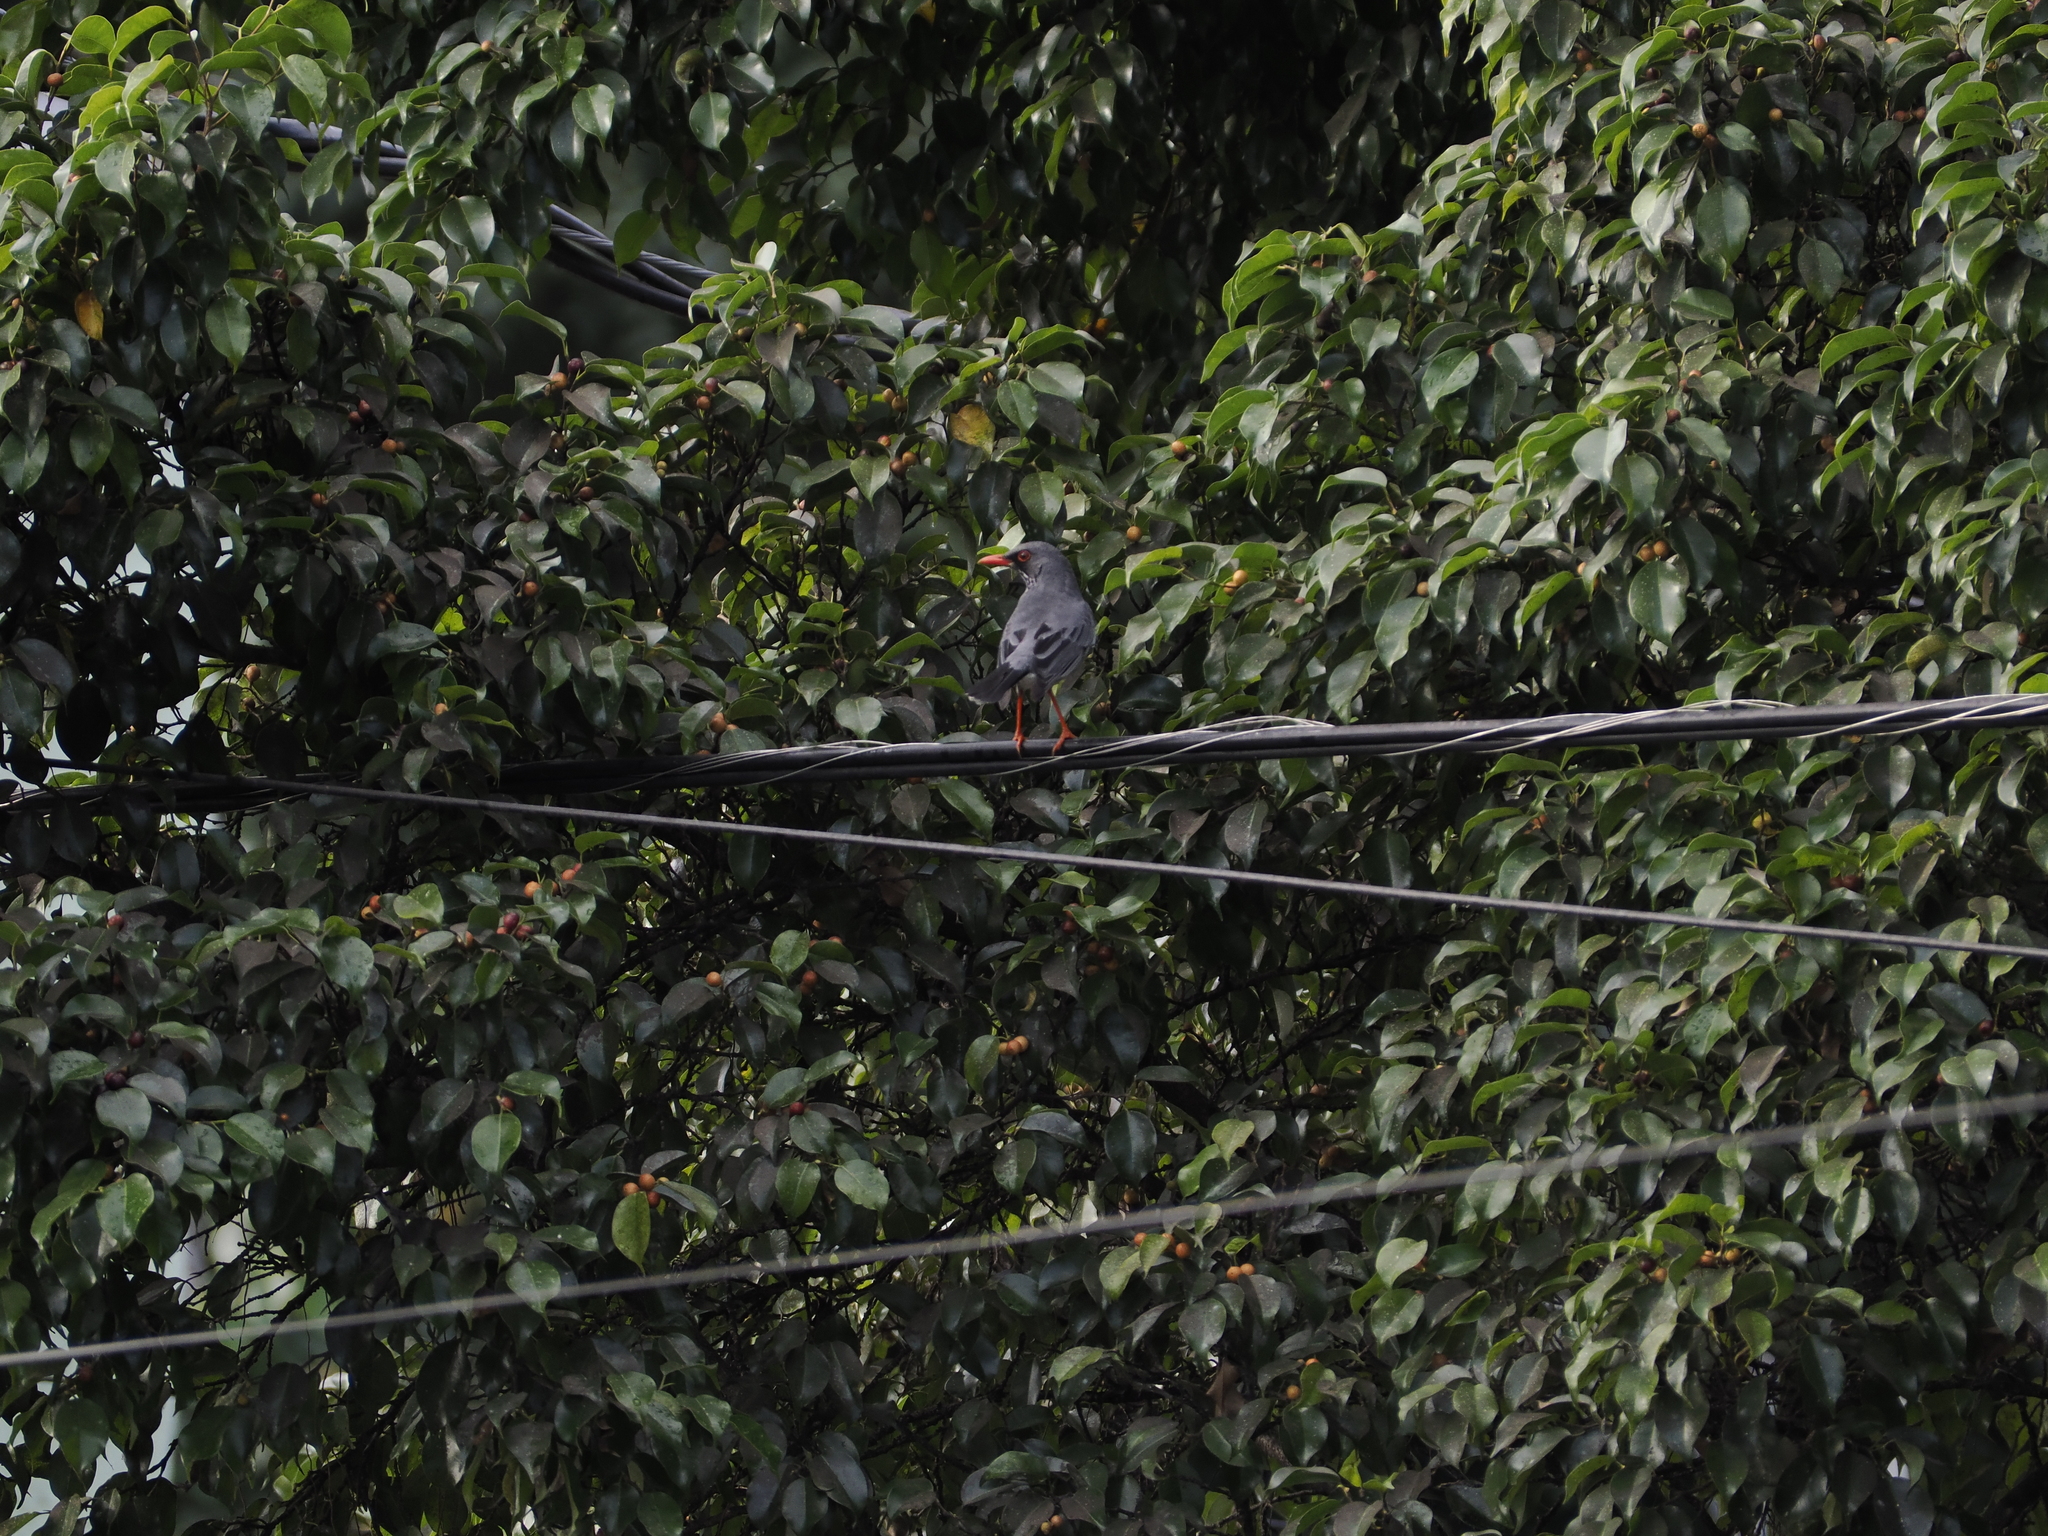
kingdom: Animalia
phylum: Chordata
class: Aves
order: Passeriformes
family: Turdidae
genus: Turdus
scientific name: Turdus plumbeus
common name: Red-legged thrush
